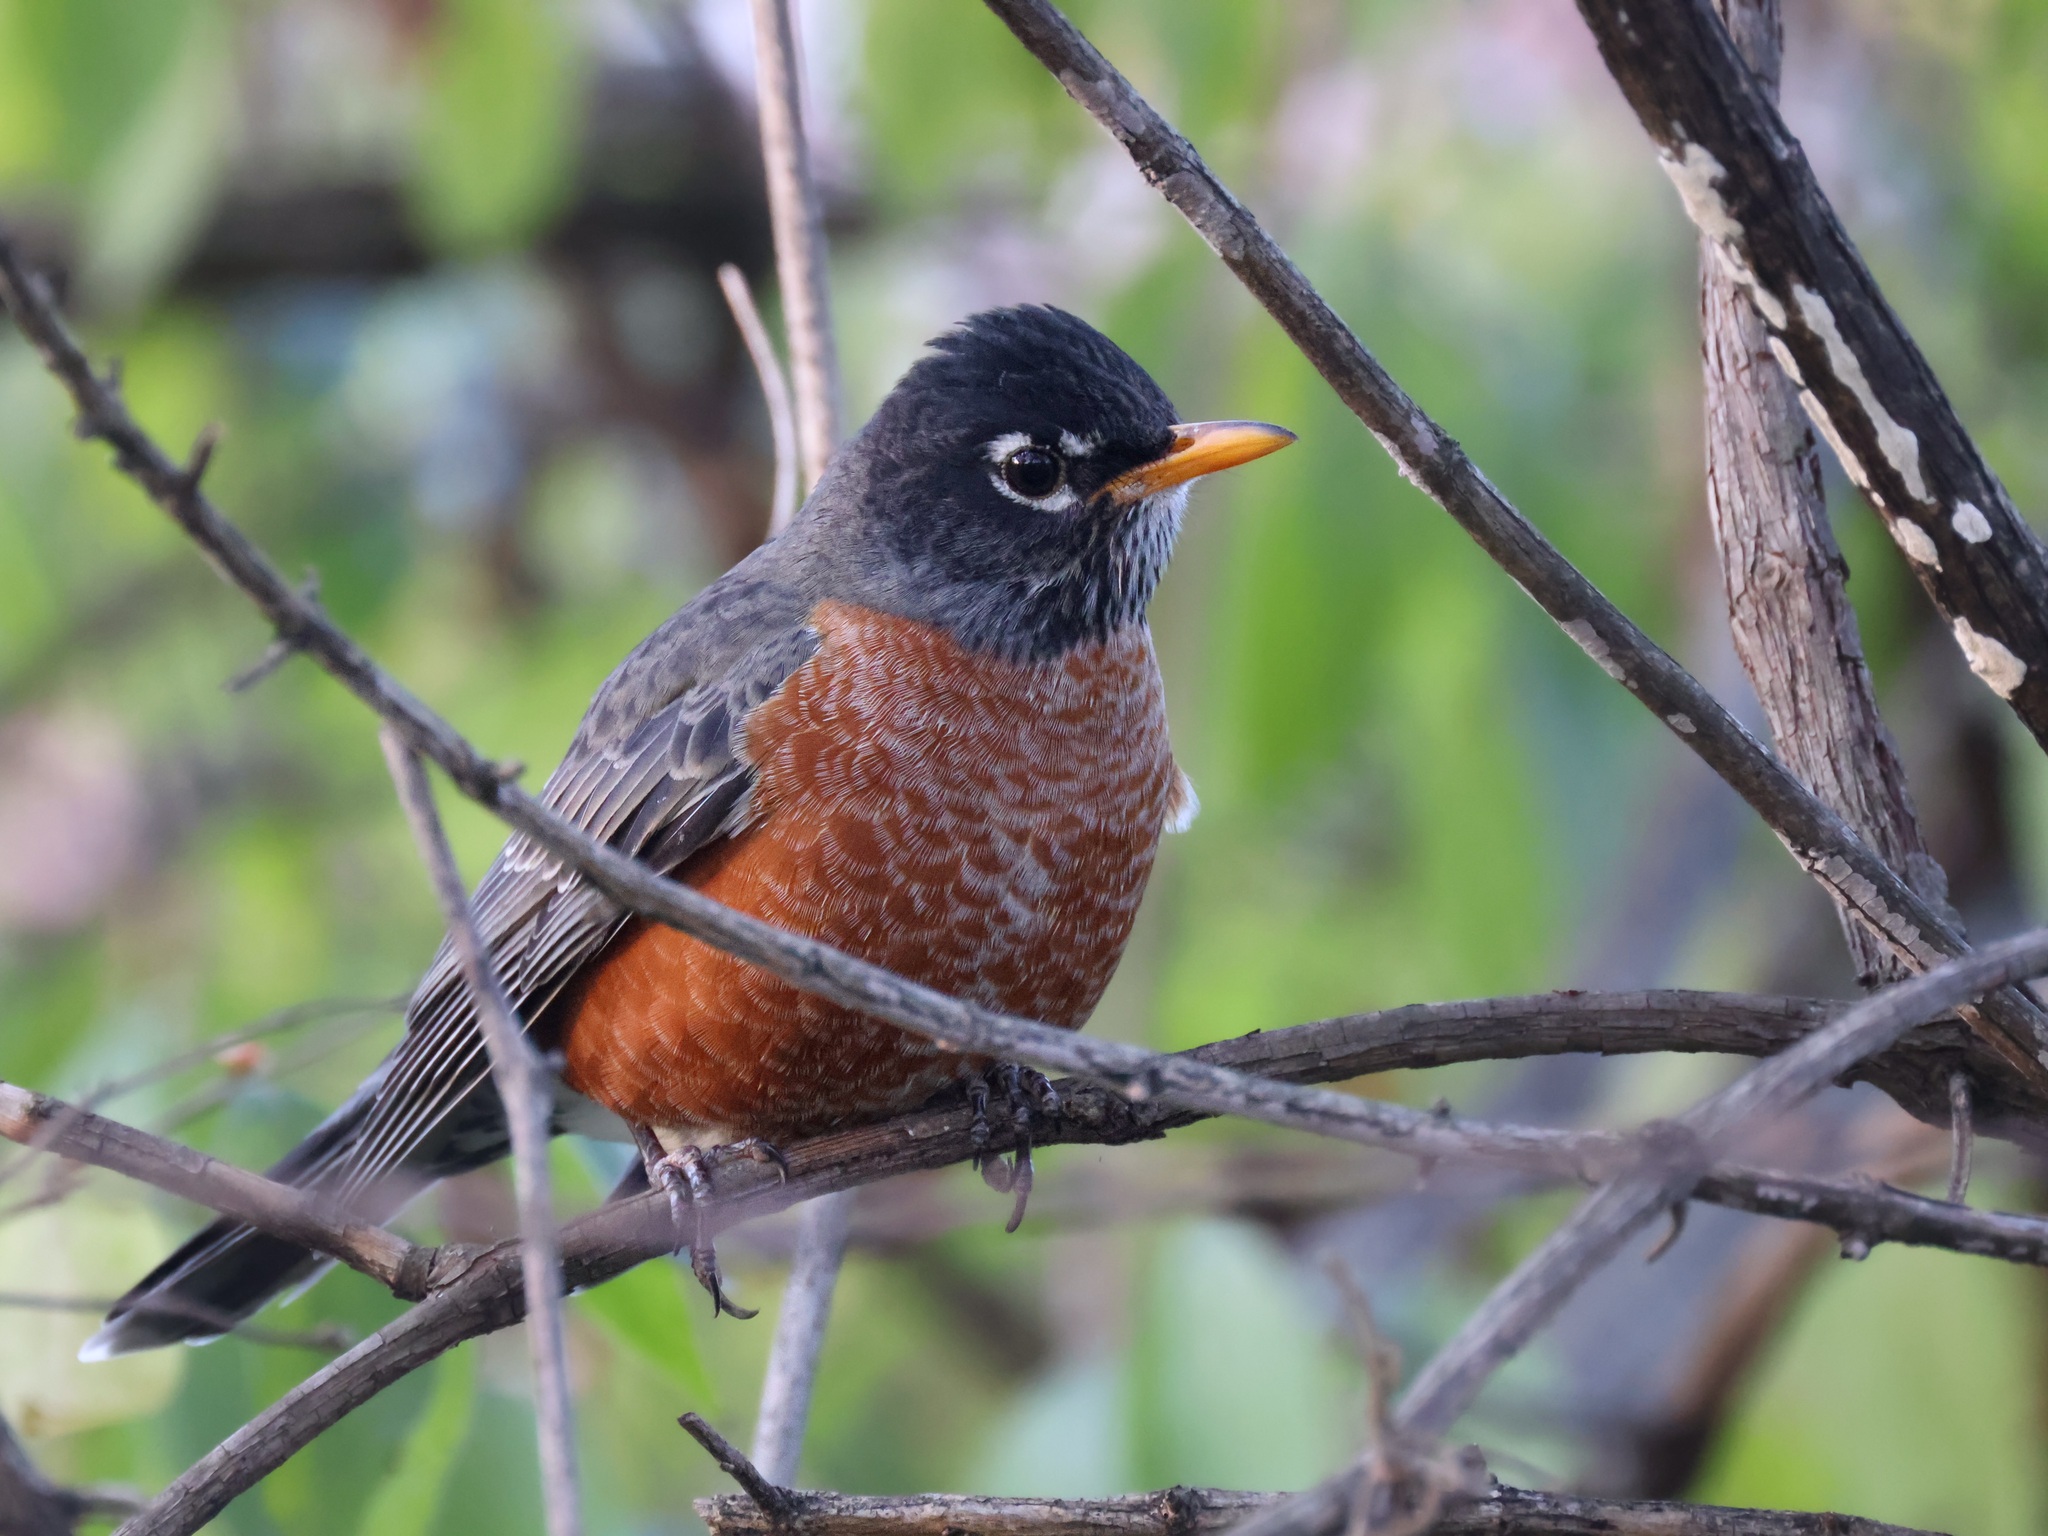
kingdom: Animalia
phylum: Chordata
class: Aves
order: Passeriformes
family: Turdidae
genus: Turdus
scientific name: Turdus migratorius
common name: American robin
